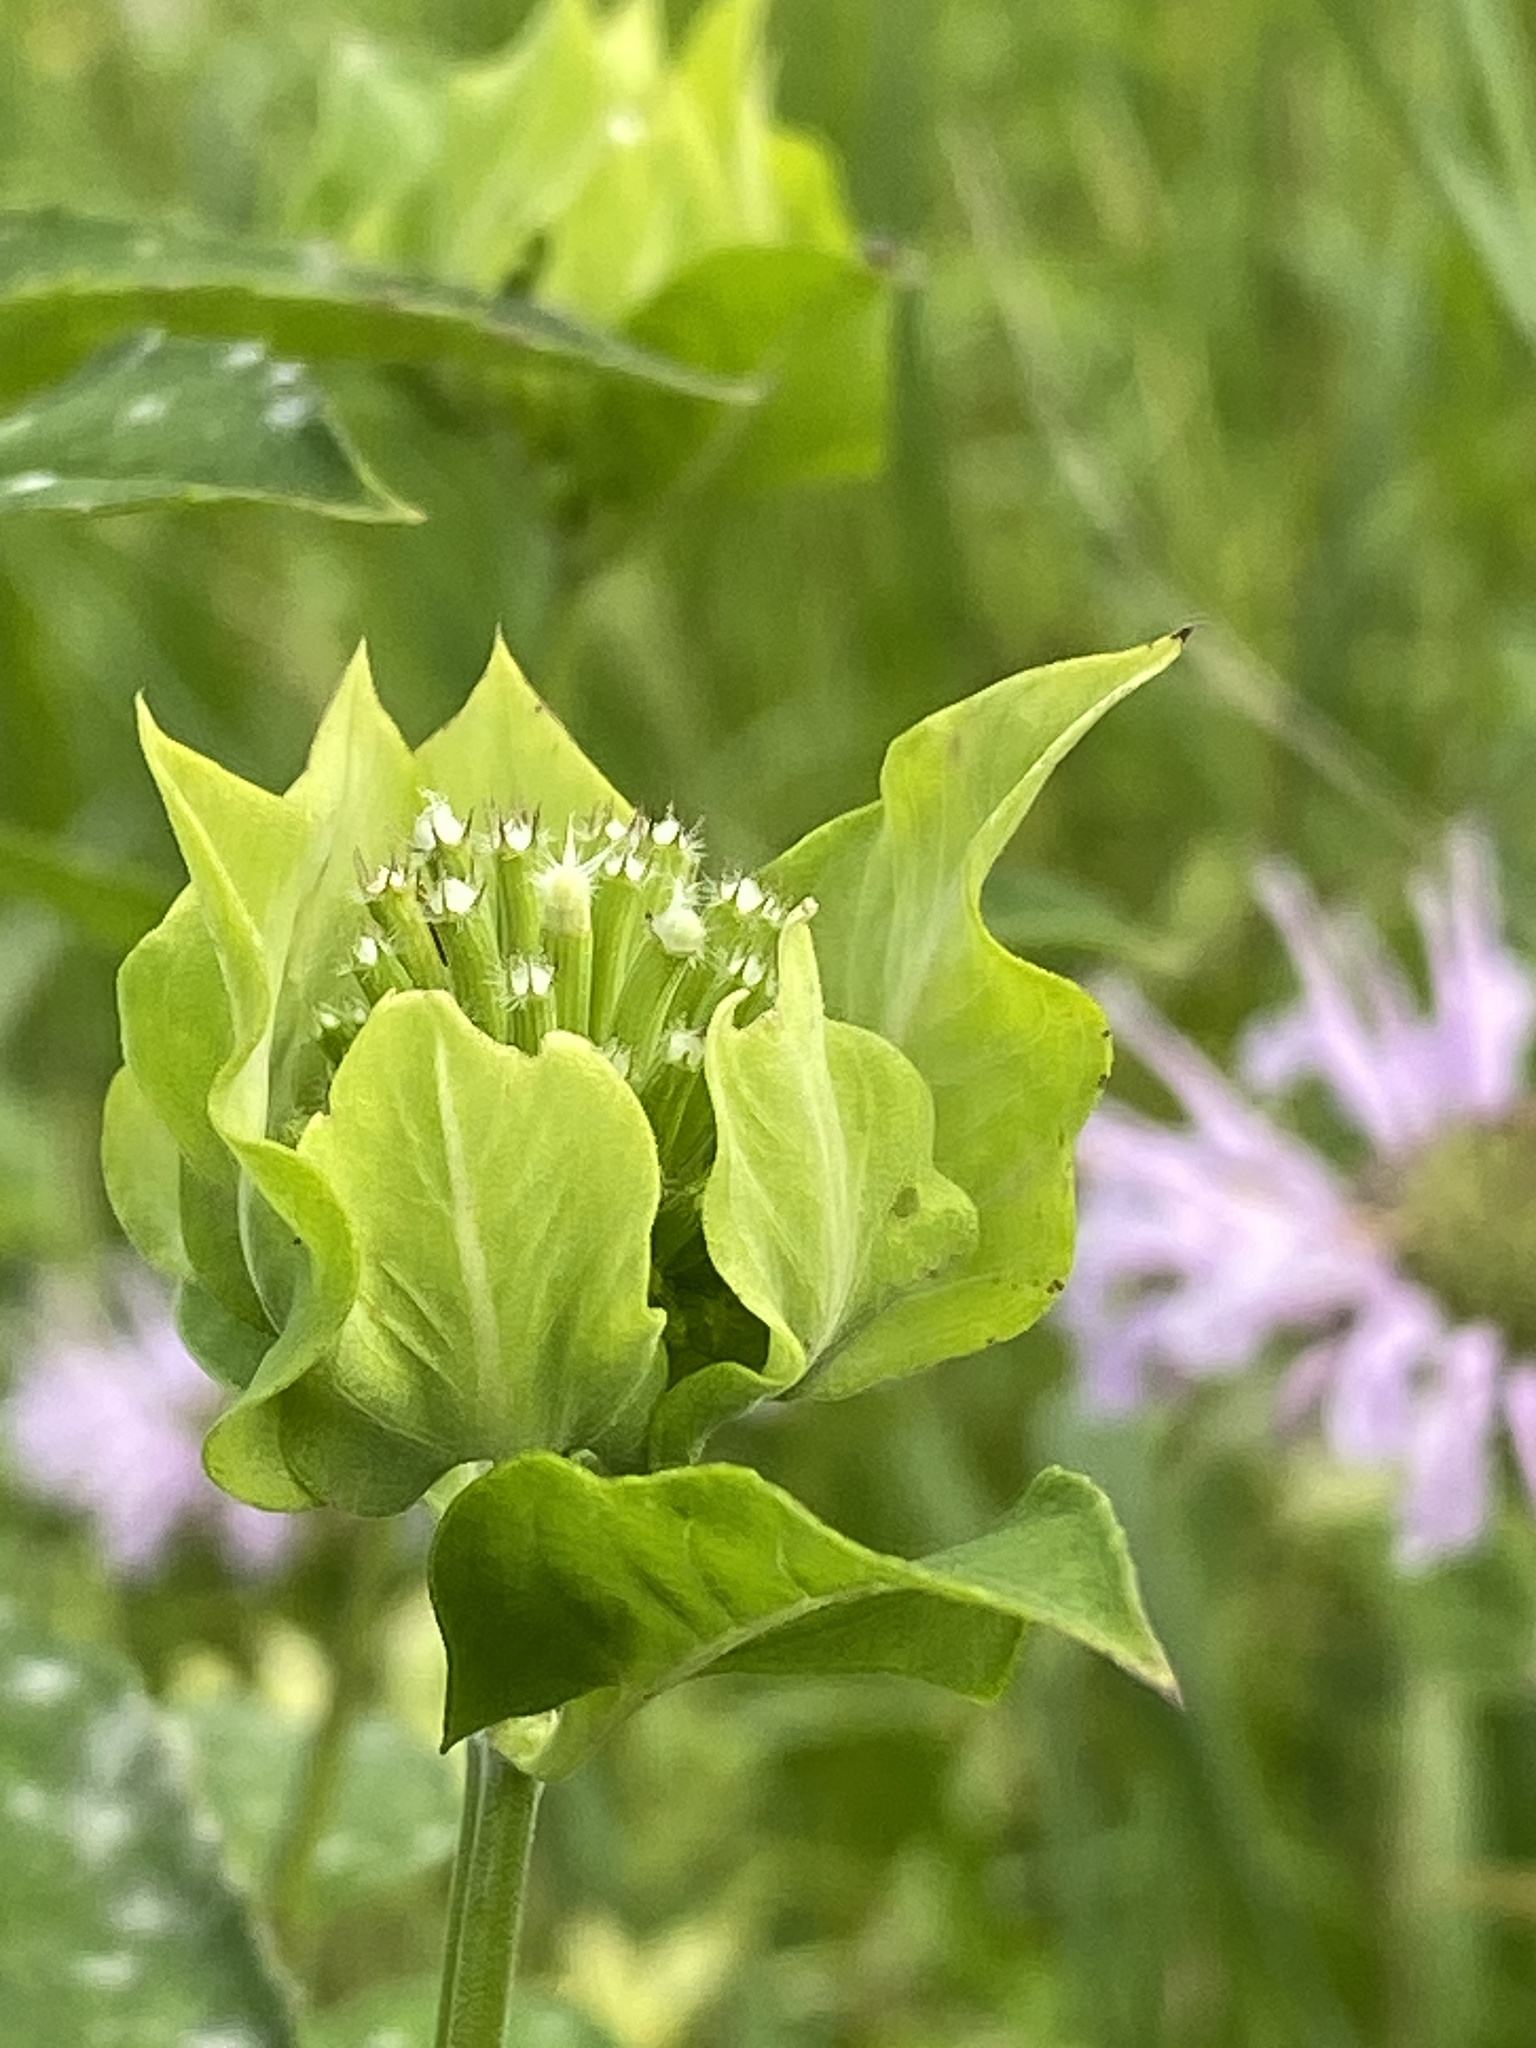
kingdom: Plantae
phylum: Tracheophyta
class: Magnoliopsida
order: Lamiales
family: Lamiaceae
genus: Monarda
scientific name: Monarda fistulosa
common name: Purple beebalm
